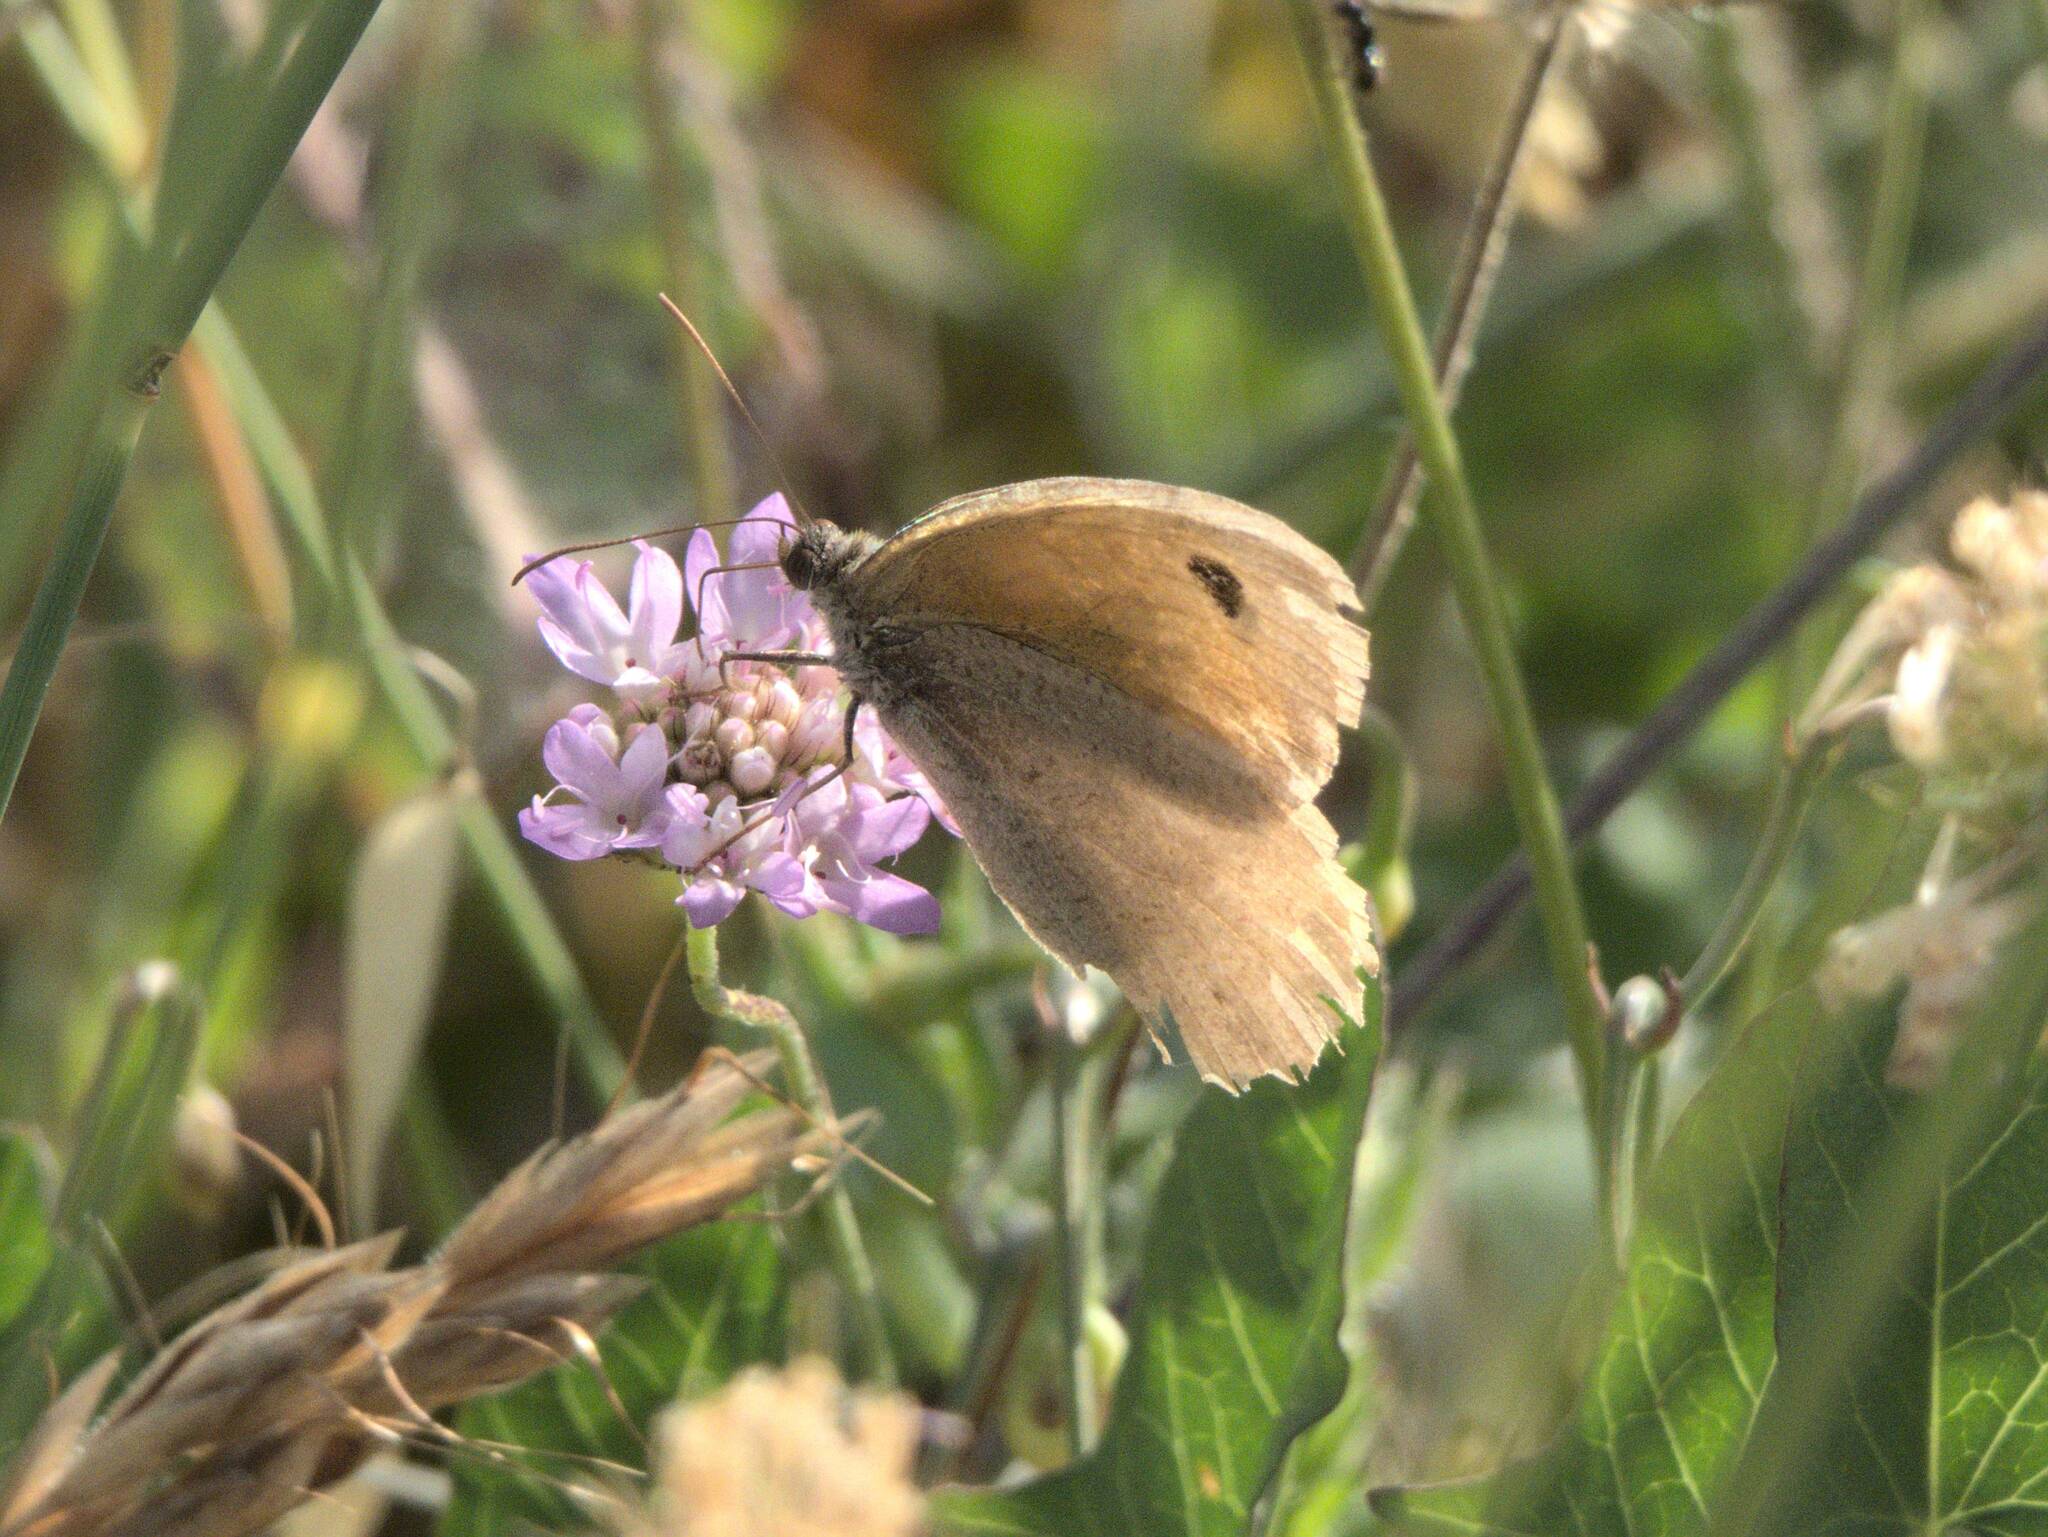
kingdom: Animalia
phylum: Arthropoda
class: Insecta
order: Lepidoptera
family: Nymphalidae
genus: Maniola
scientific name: Maniola jurtina
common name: Meadow brown
